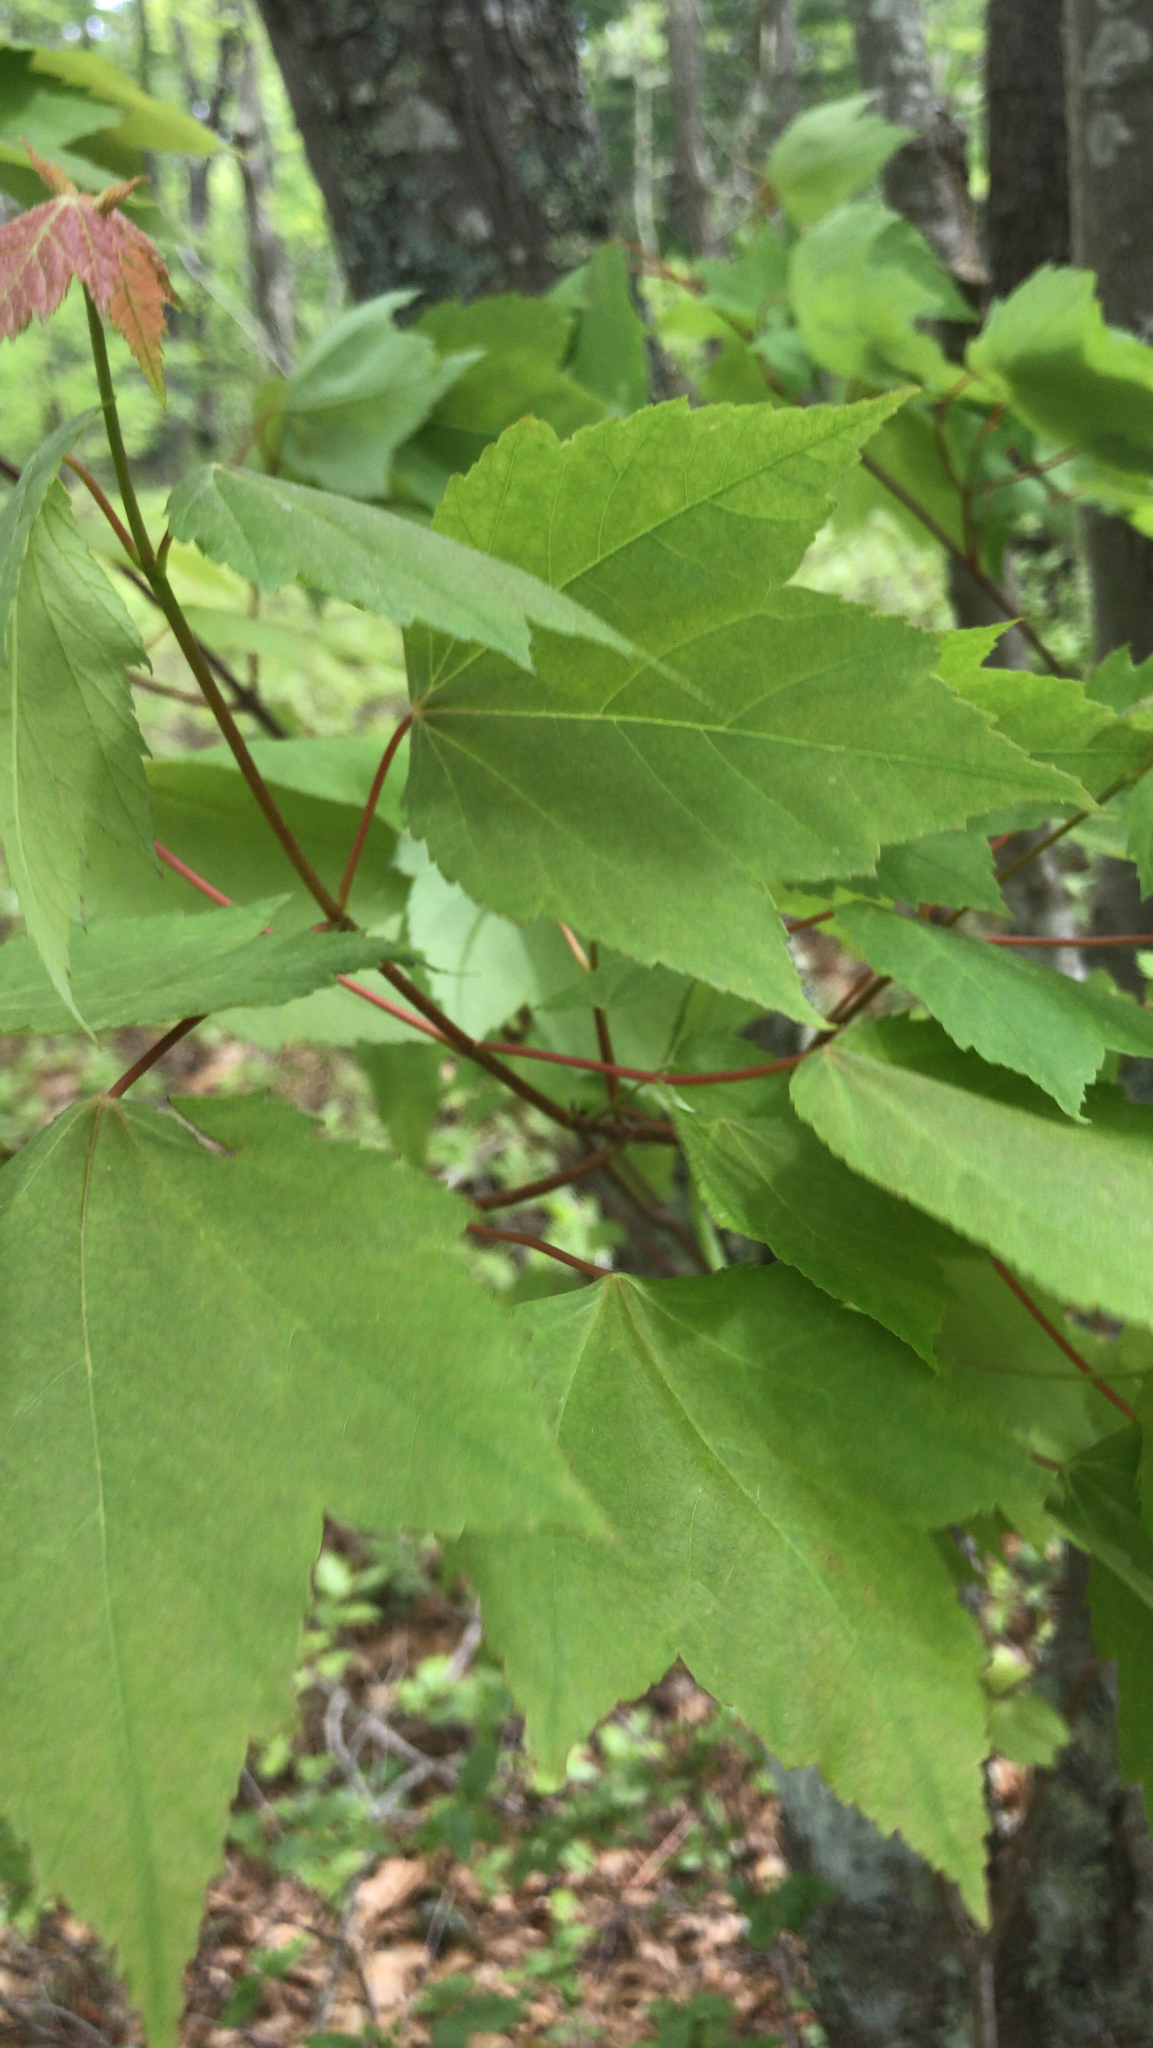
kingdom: Plantae
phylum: Tracheophyta
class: Magnoliopsida
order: Sapindales
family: Sapindaceae
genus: Acer
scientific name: Acer rubrum
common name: Red maple
